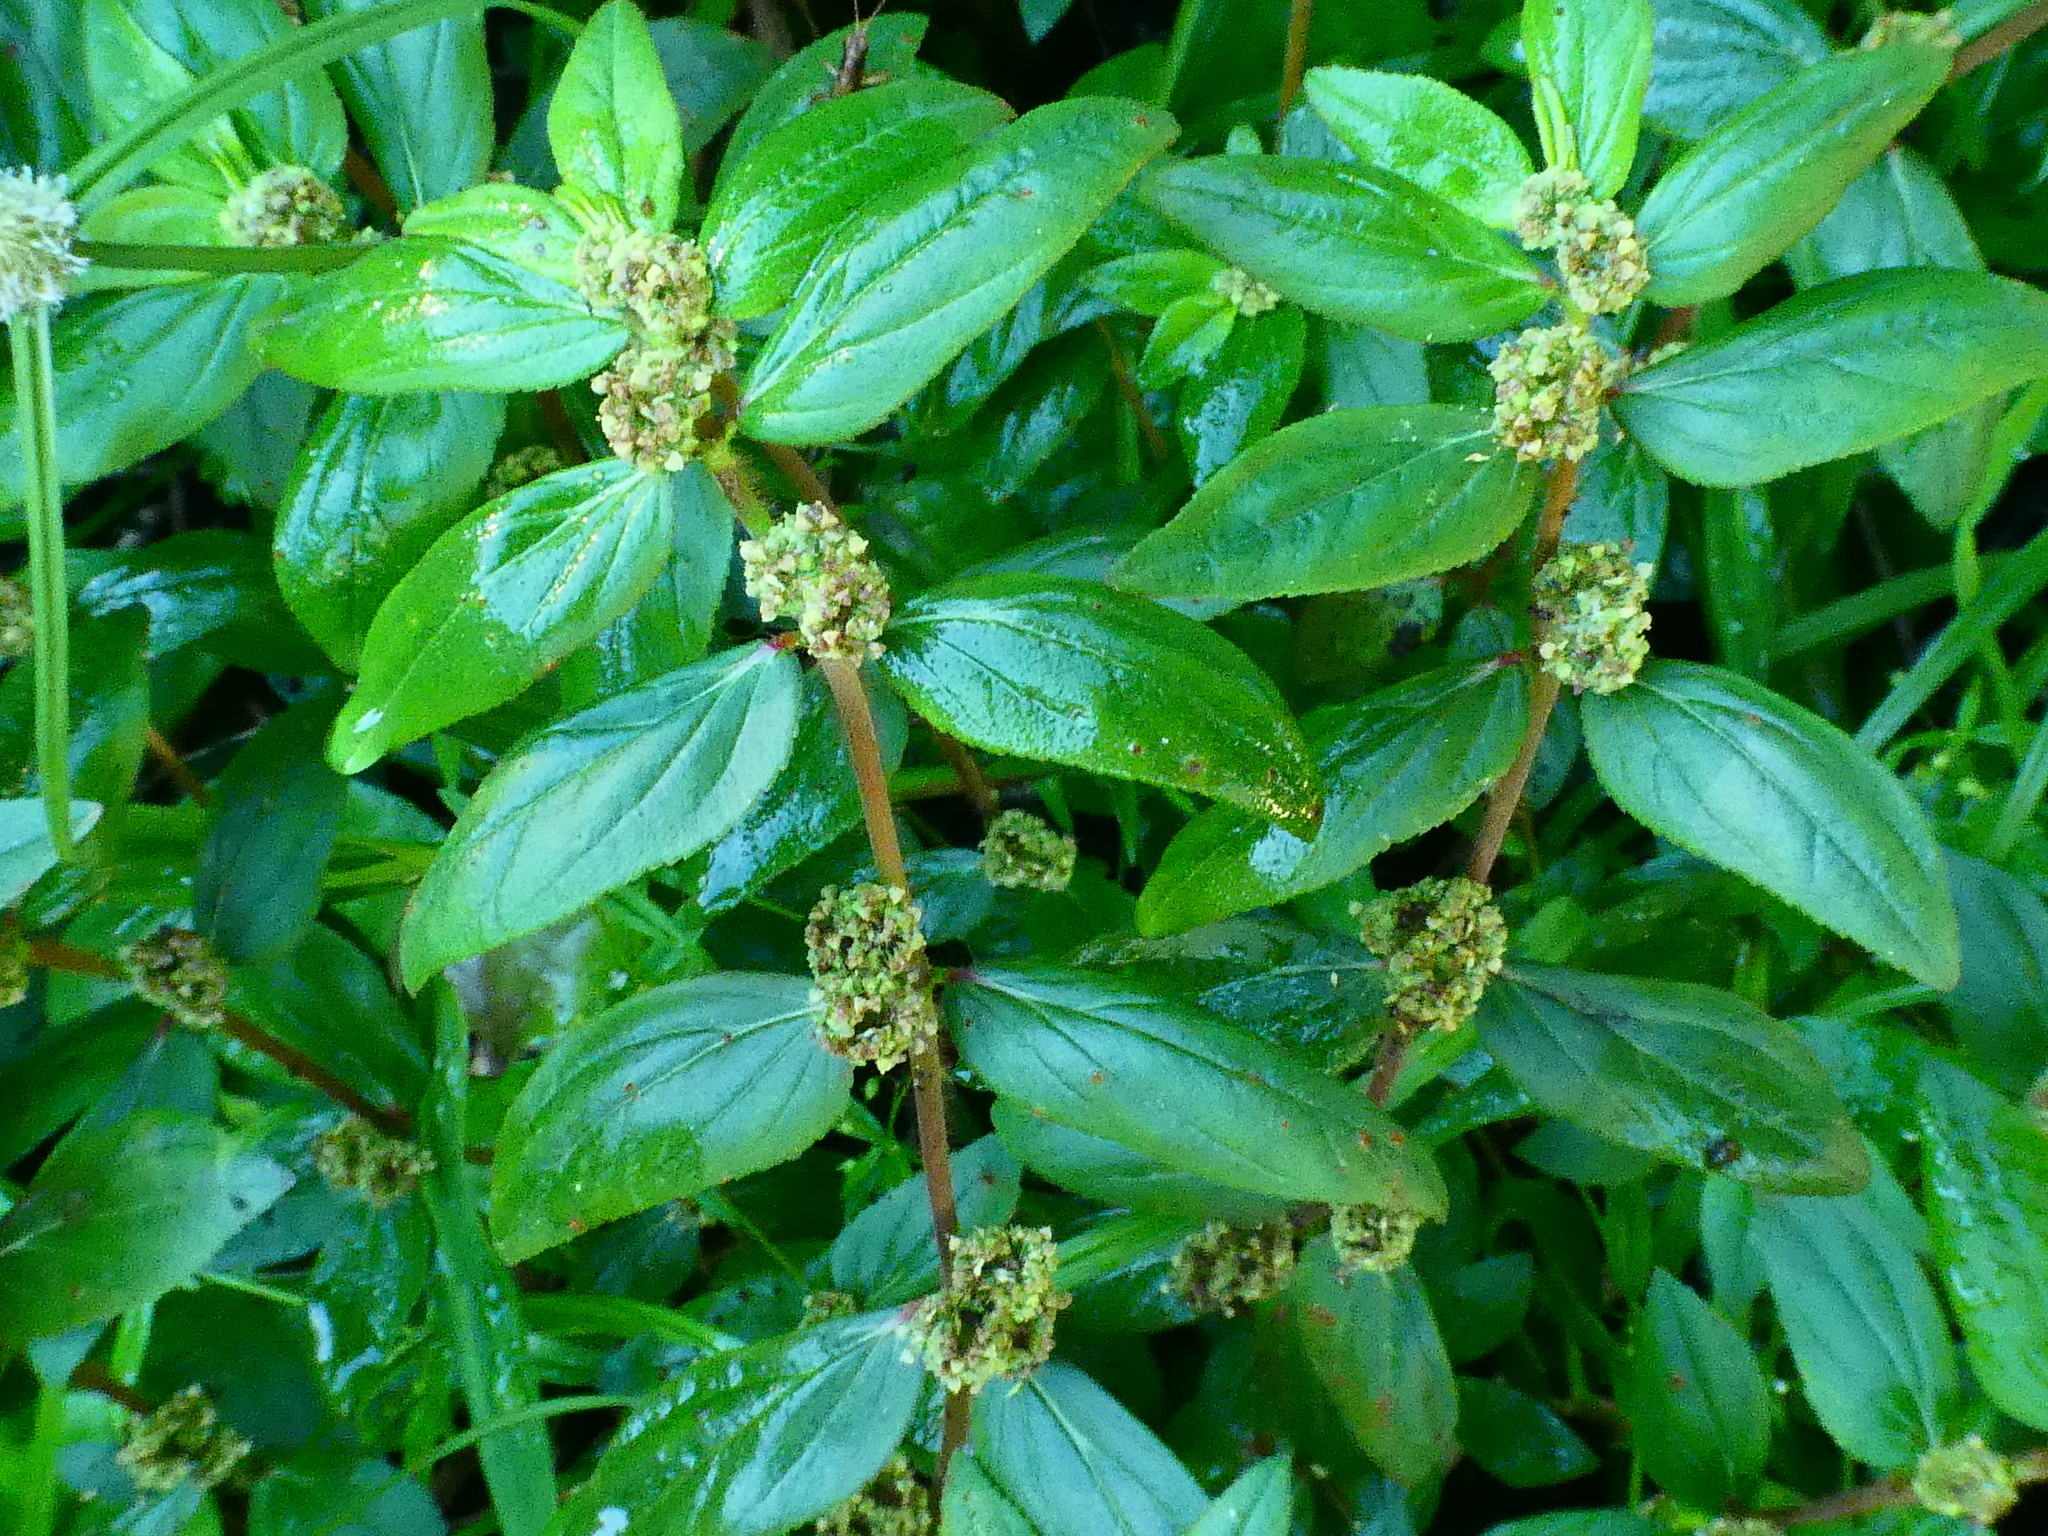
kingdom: Plantae
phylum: Tracheophyta
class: Magnoliopsida
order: Malpighiales
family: Euphorbiaceae
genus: Euphorbia
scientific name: Euphorbia hirta
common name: Pillpod sandmat
